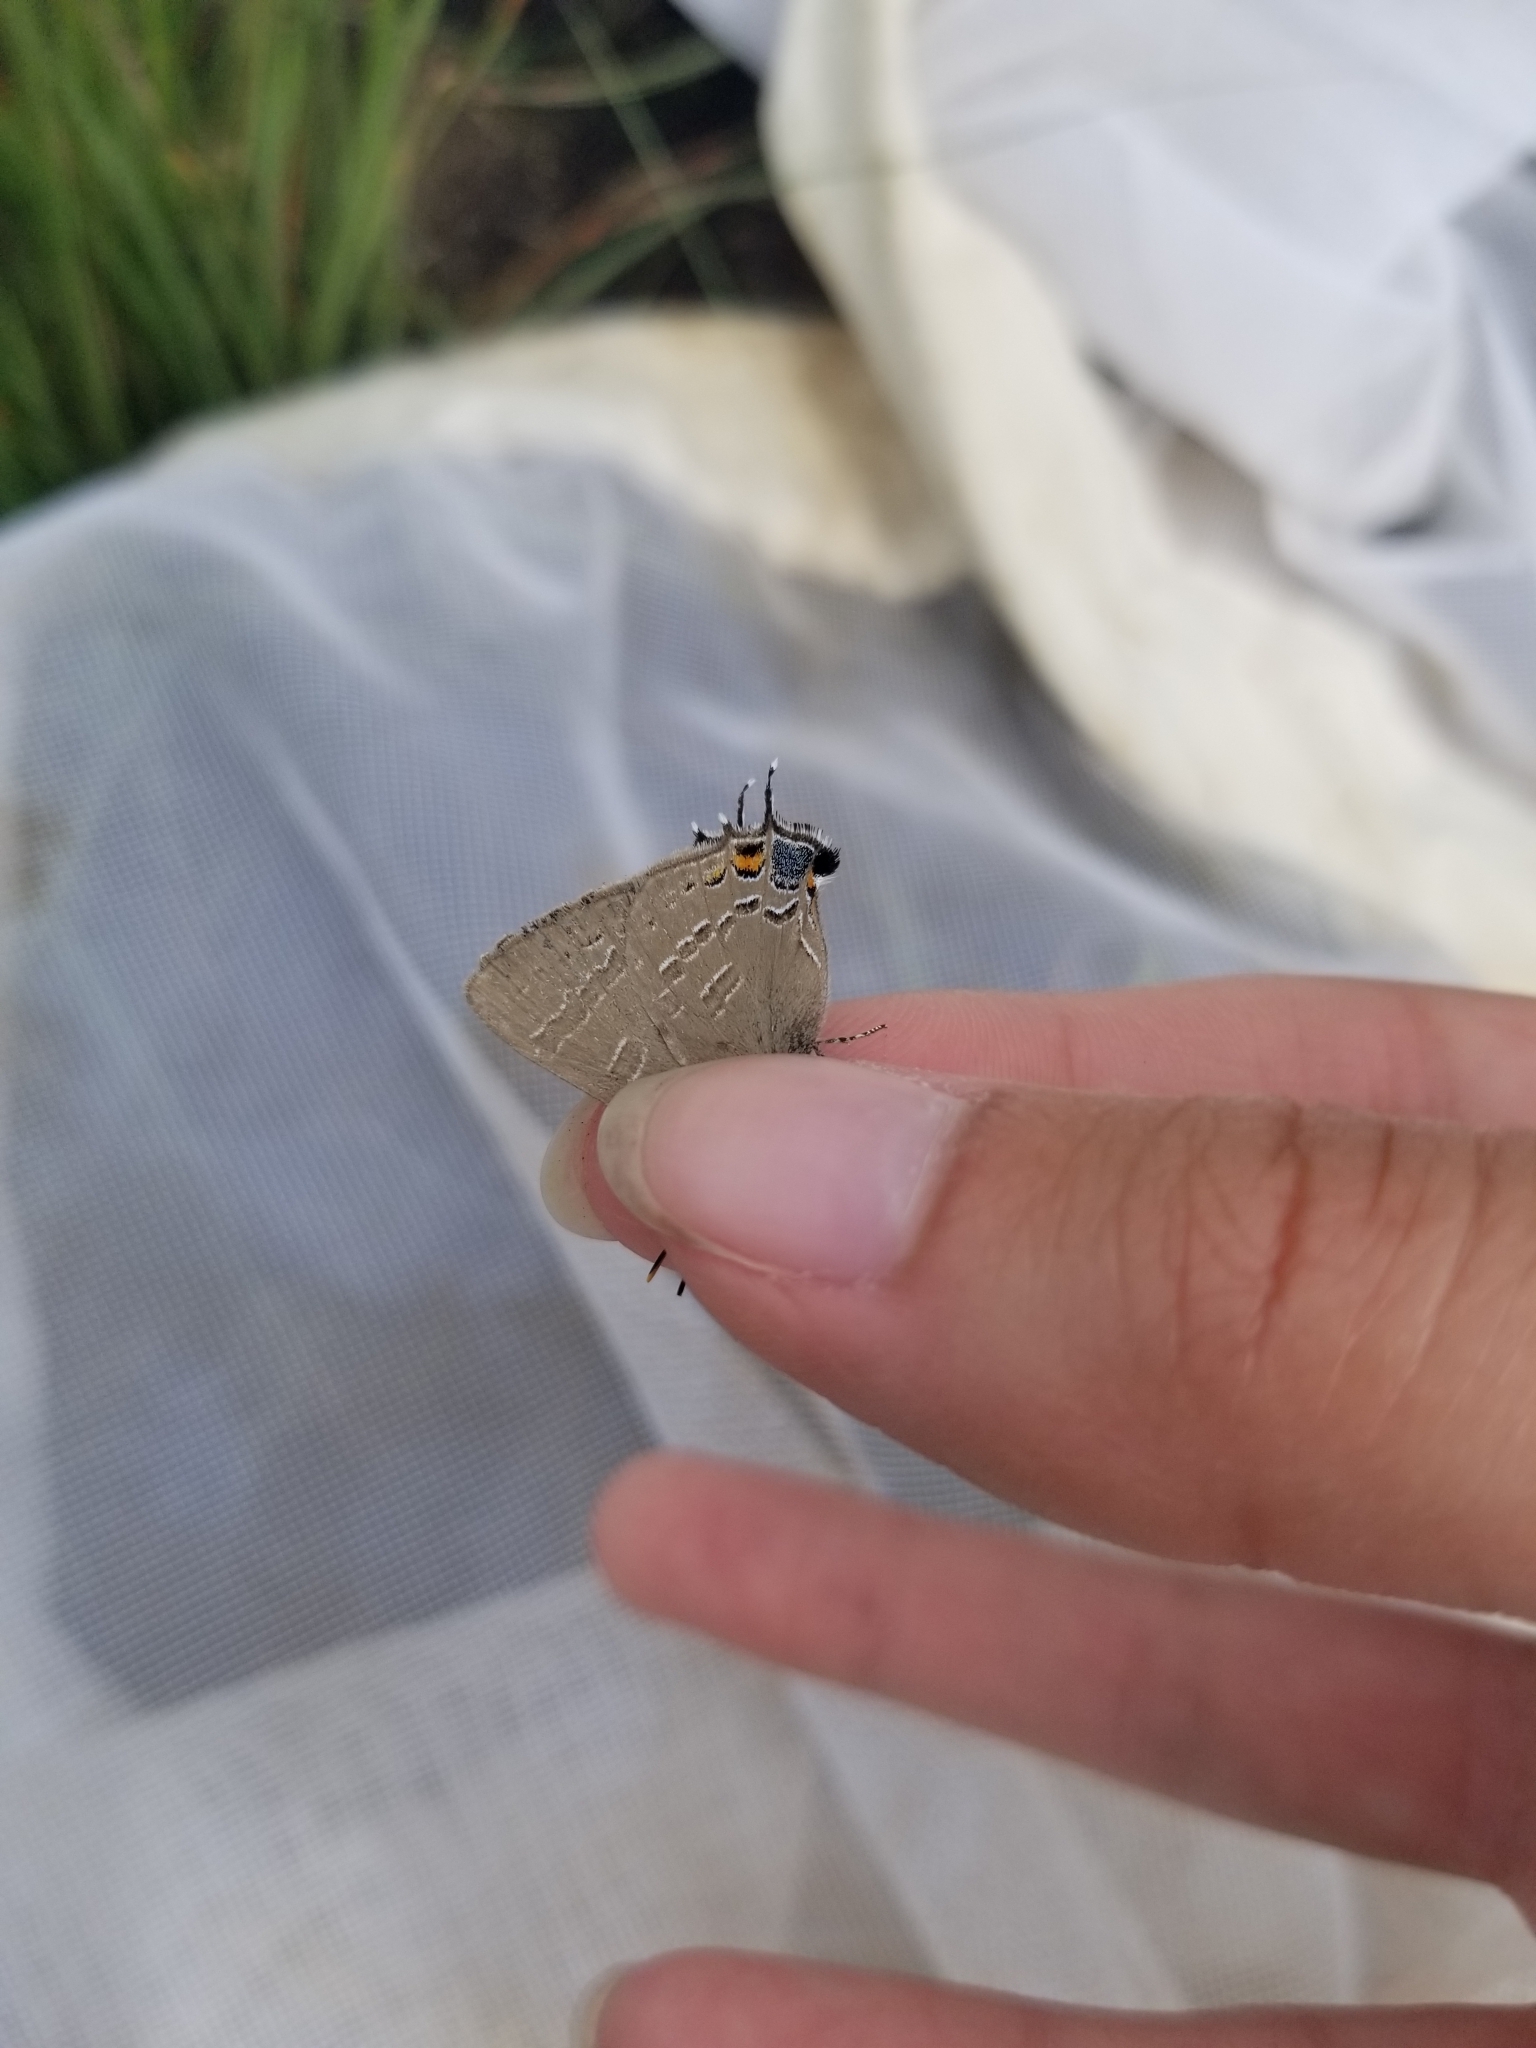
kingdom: Animalia
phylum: Arthropoda
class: Insecta
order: Lepidoptera
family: Lycaenidae
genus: Satyrium
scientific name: Satyrium calanus
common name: Banded hairstreak
